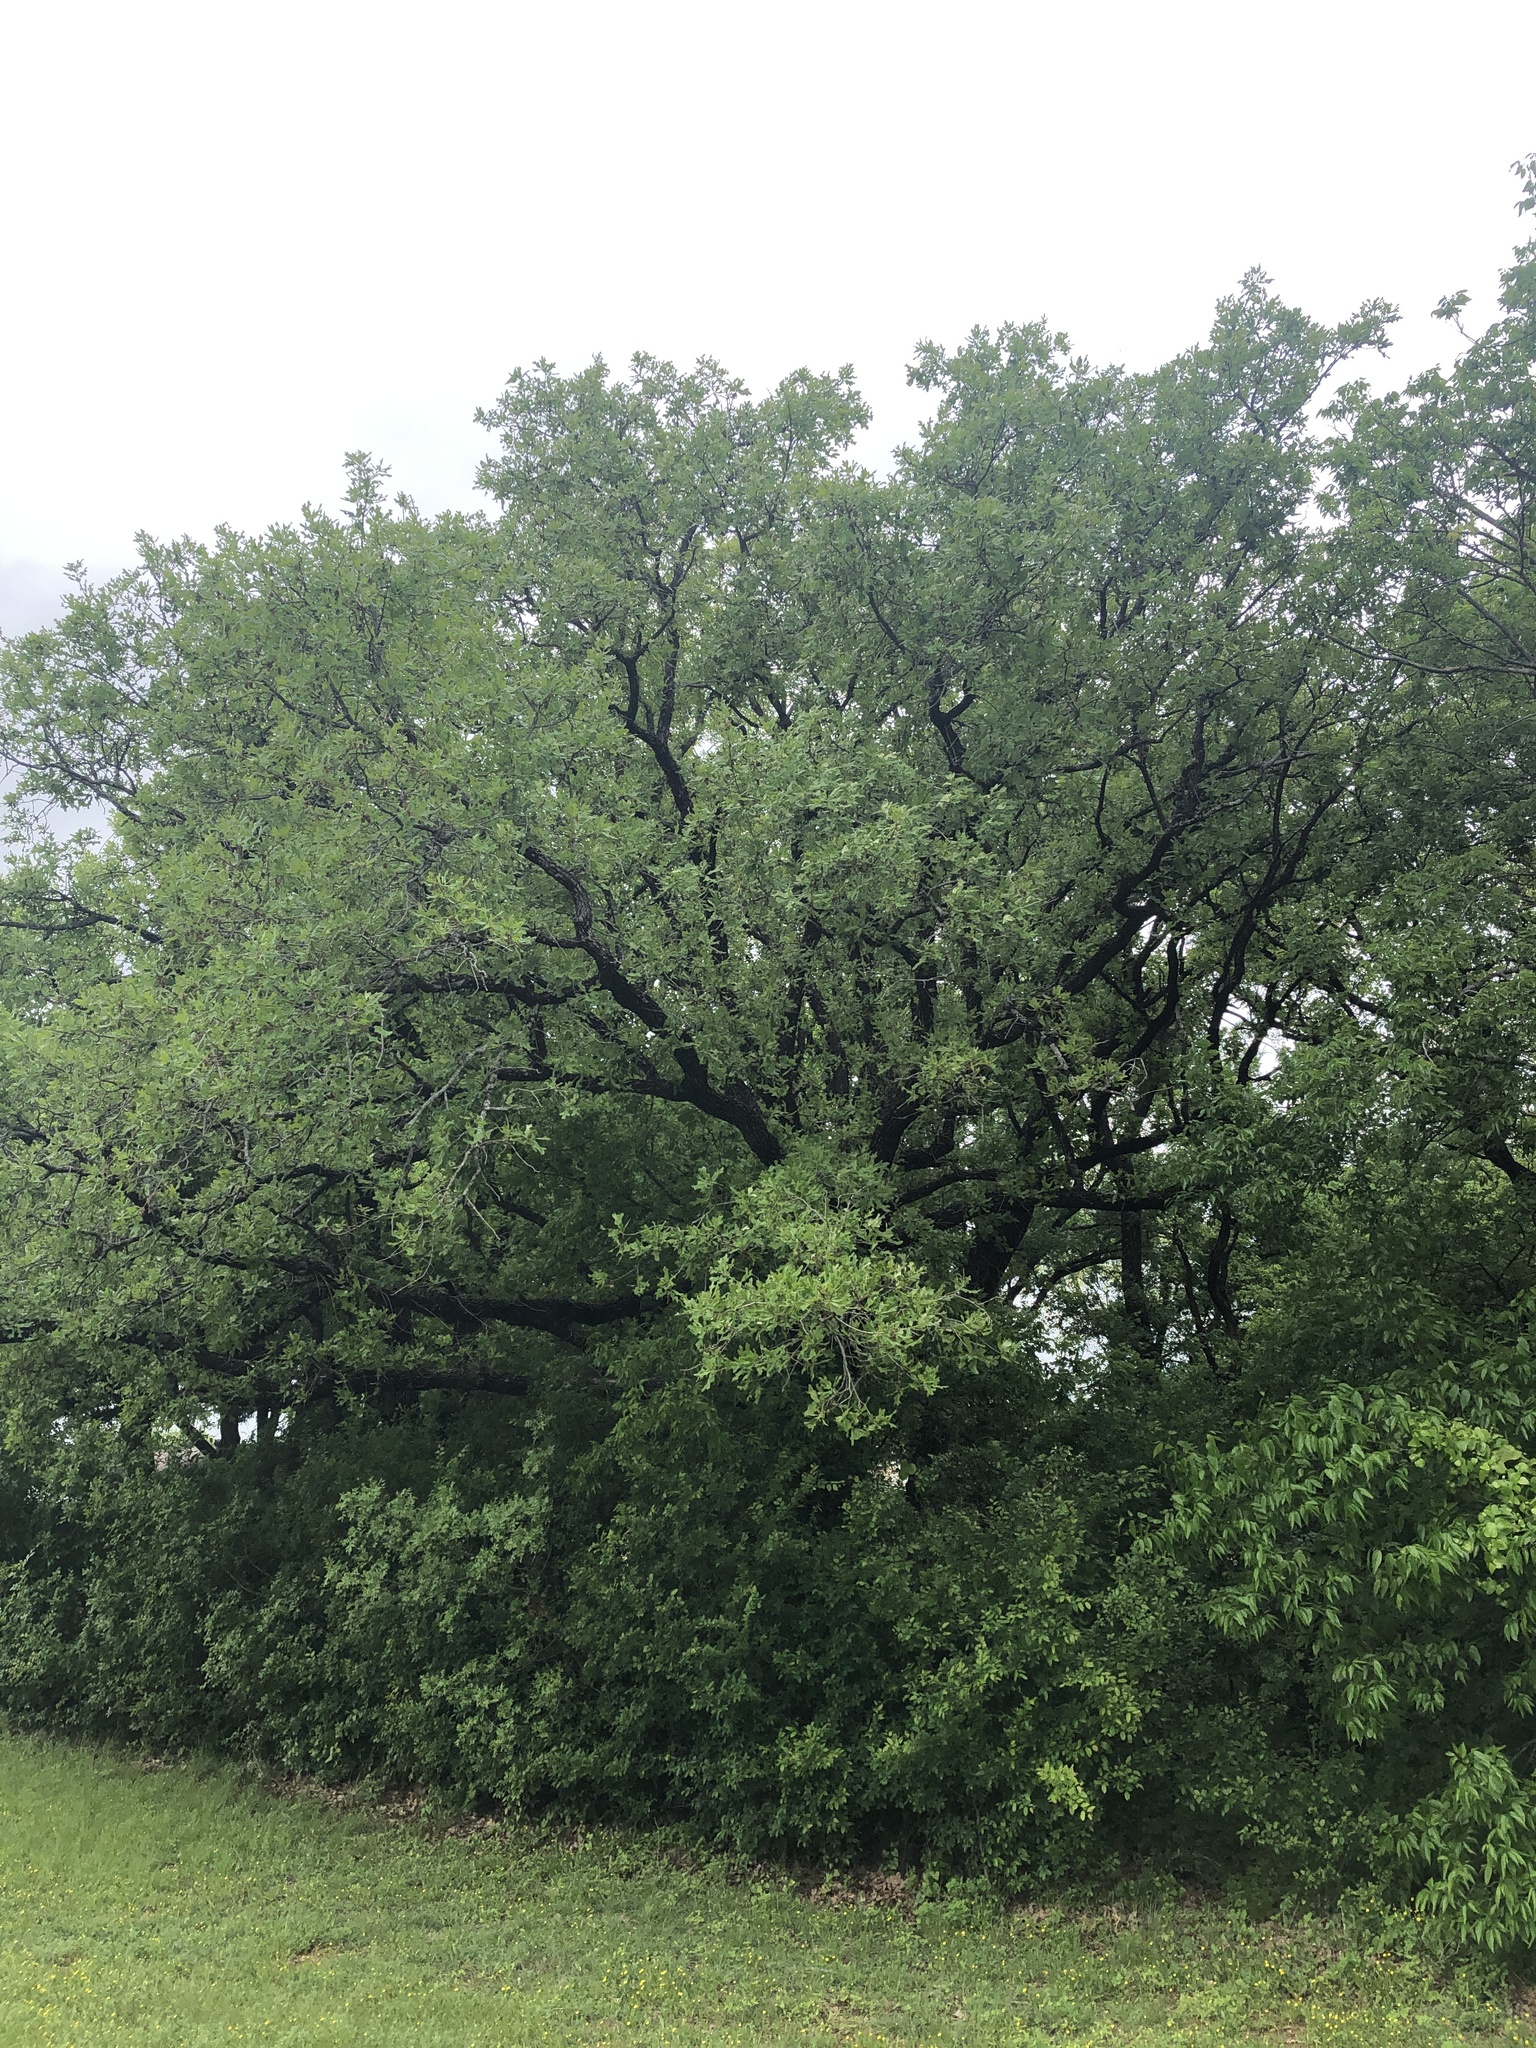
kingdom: Plantae
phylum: Tracheophyta
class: Magnoliopsida
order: Fagales
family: Fagaceae
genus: Quercus
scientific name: Quercus stellata
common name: Post oak
